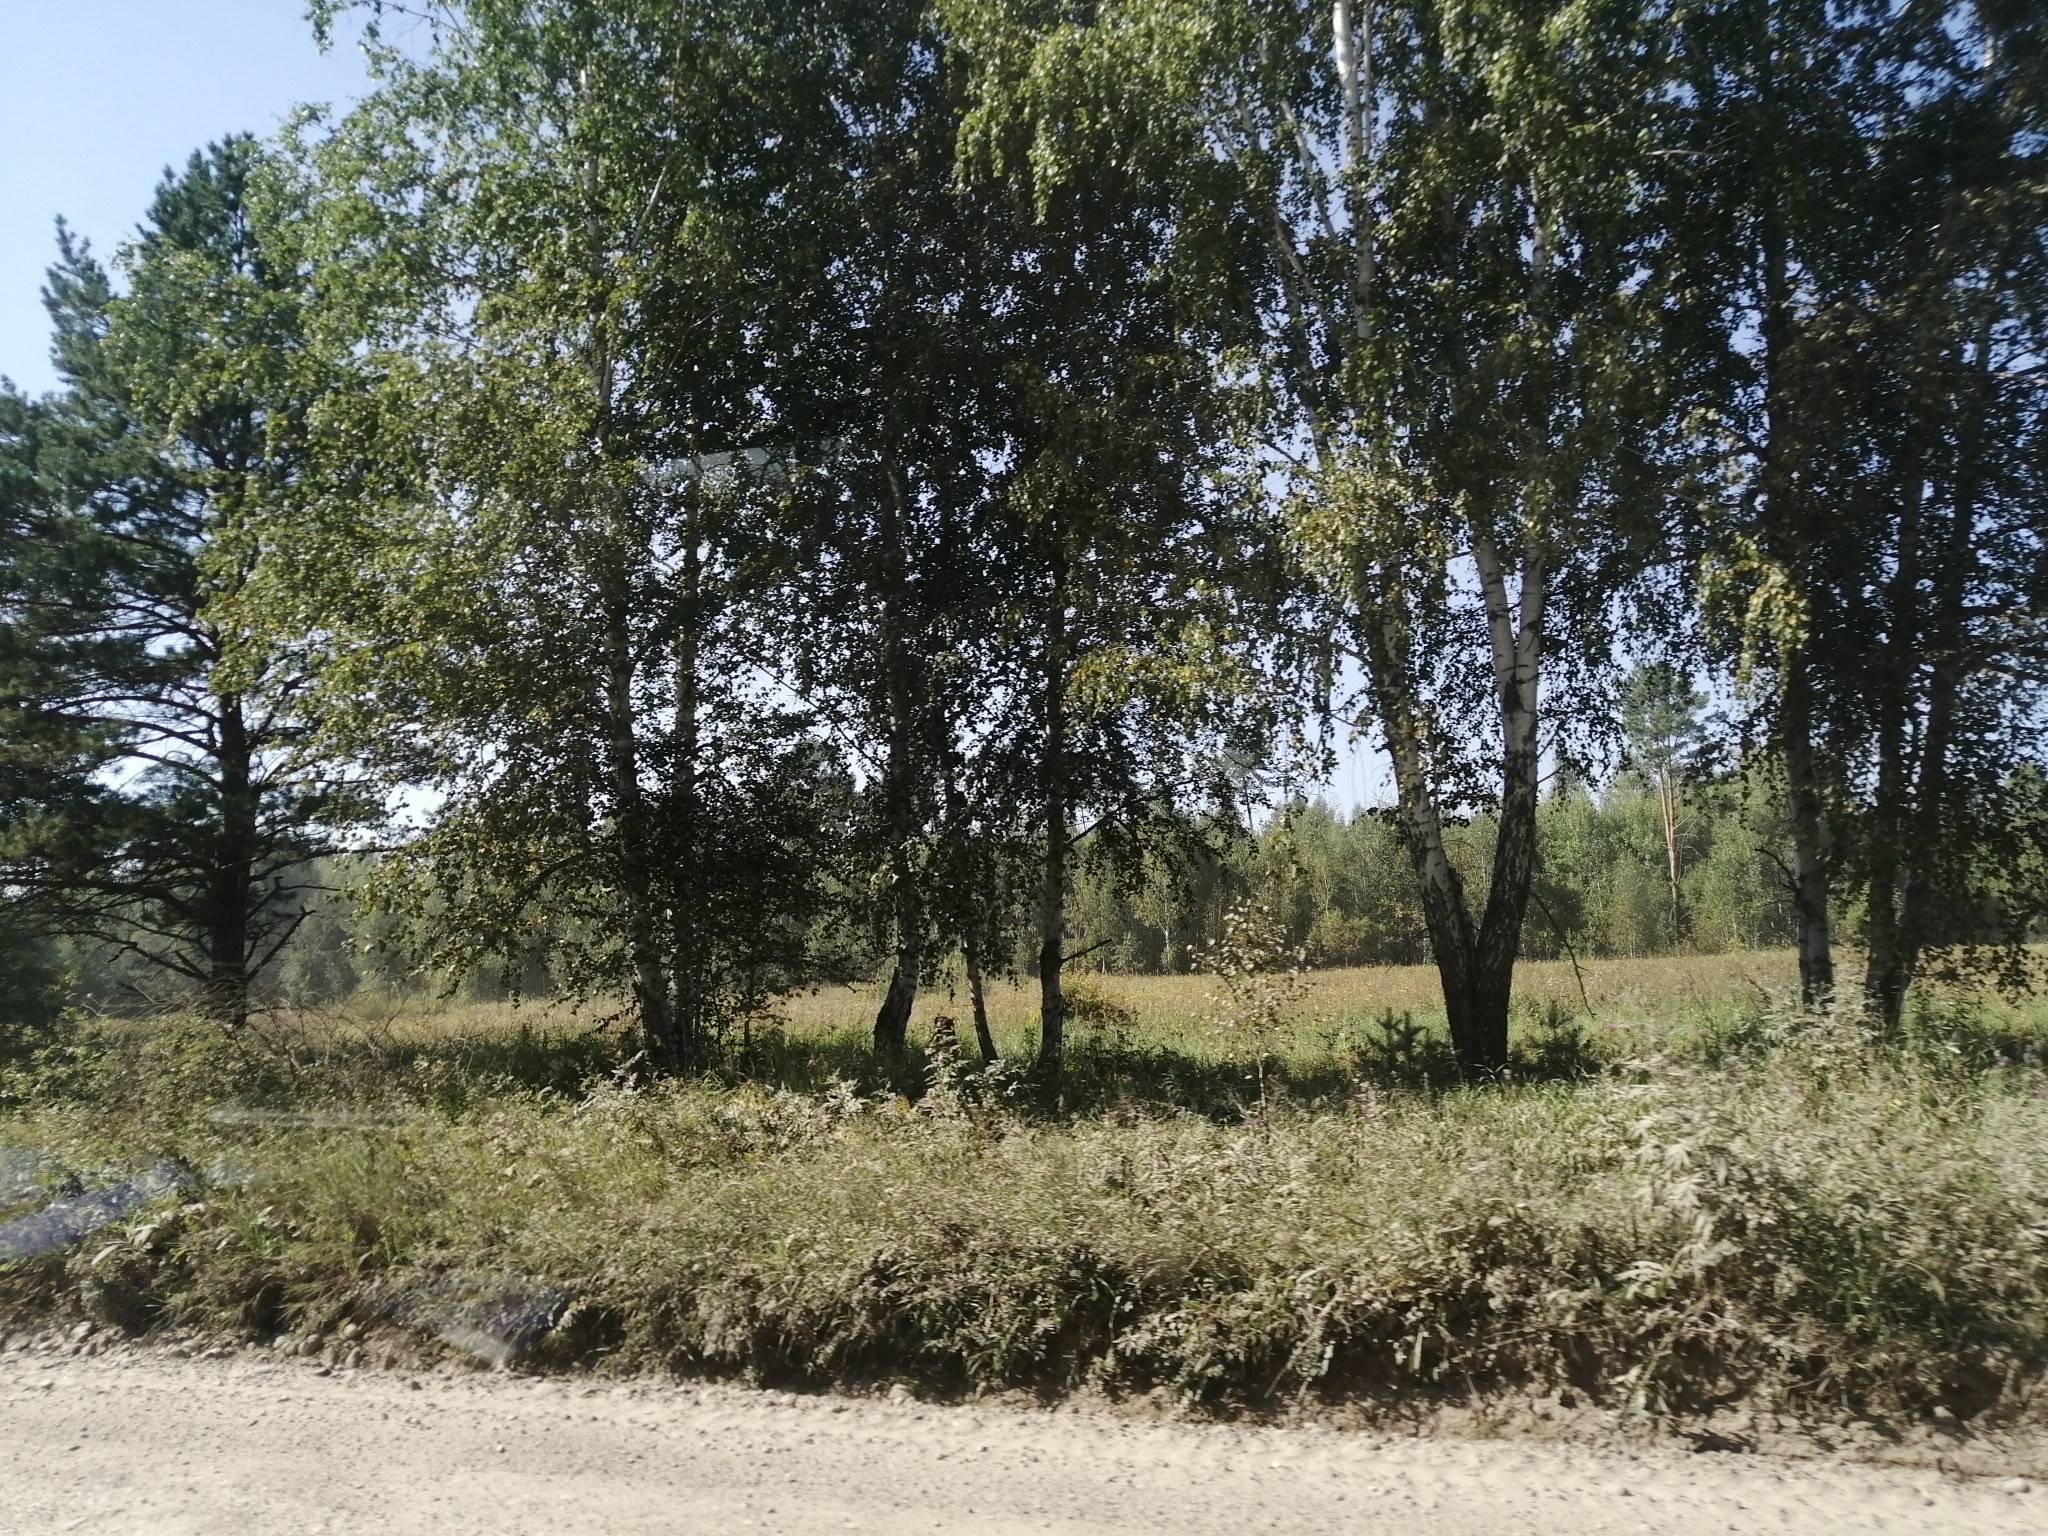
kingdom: Plantae
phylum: Tracheophyta
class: Pinopsida
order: Pinales
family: Pinaceae
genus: Pinus
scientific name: Pinus sylvestris
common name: Scots pine
